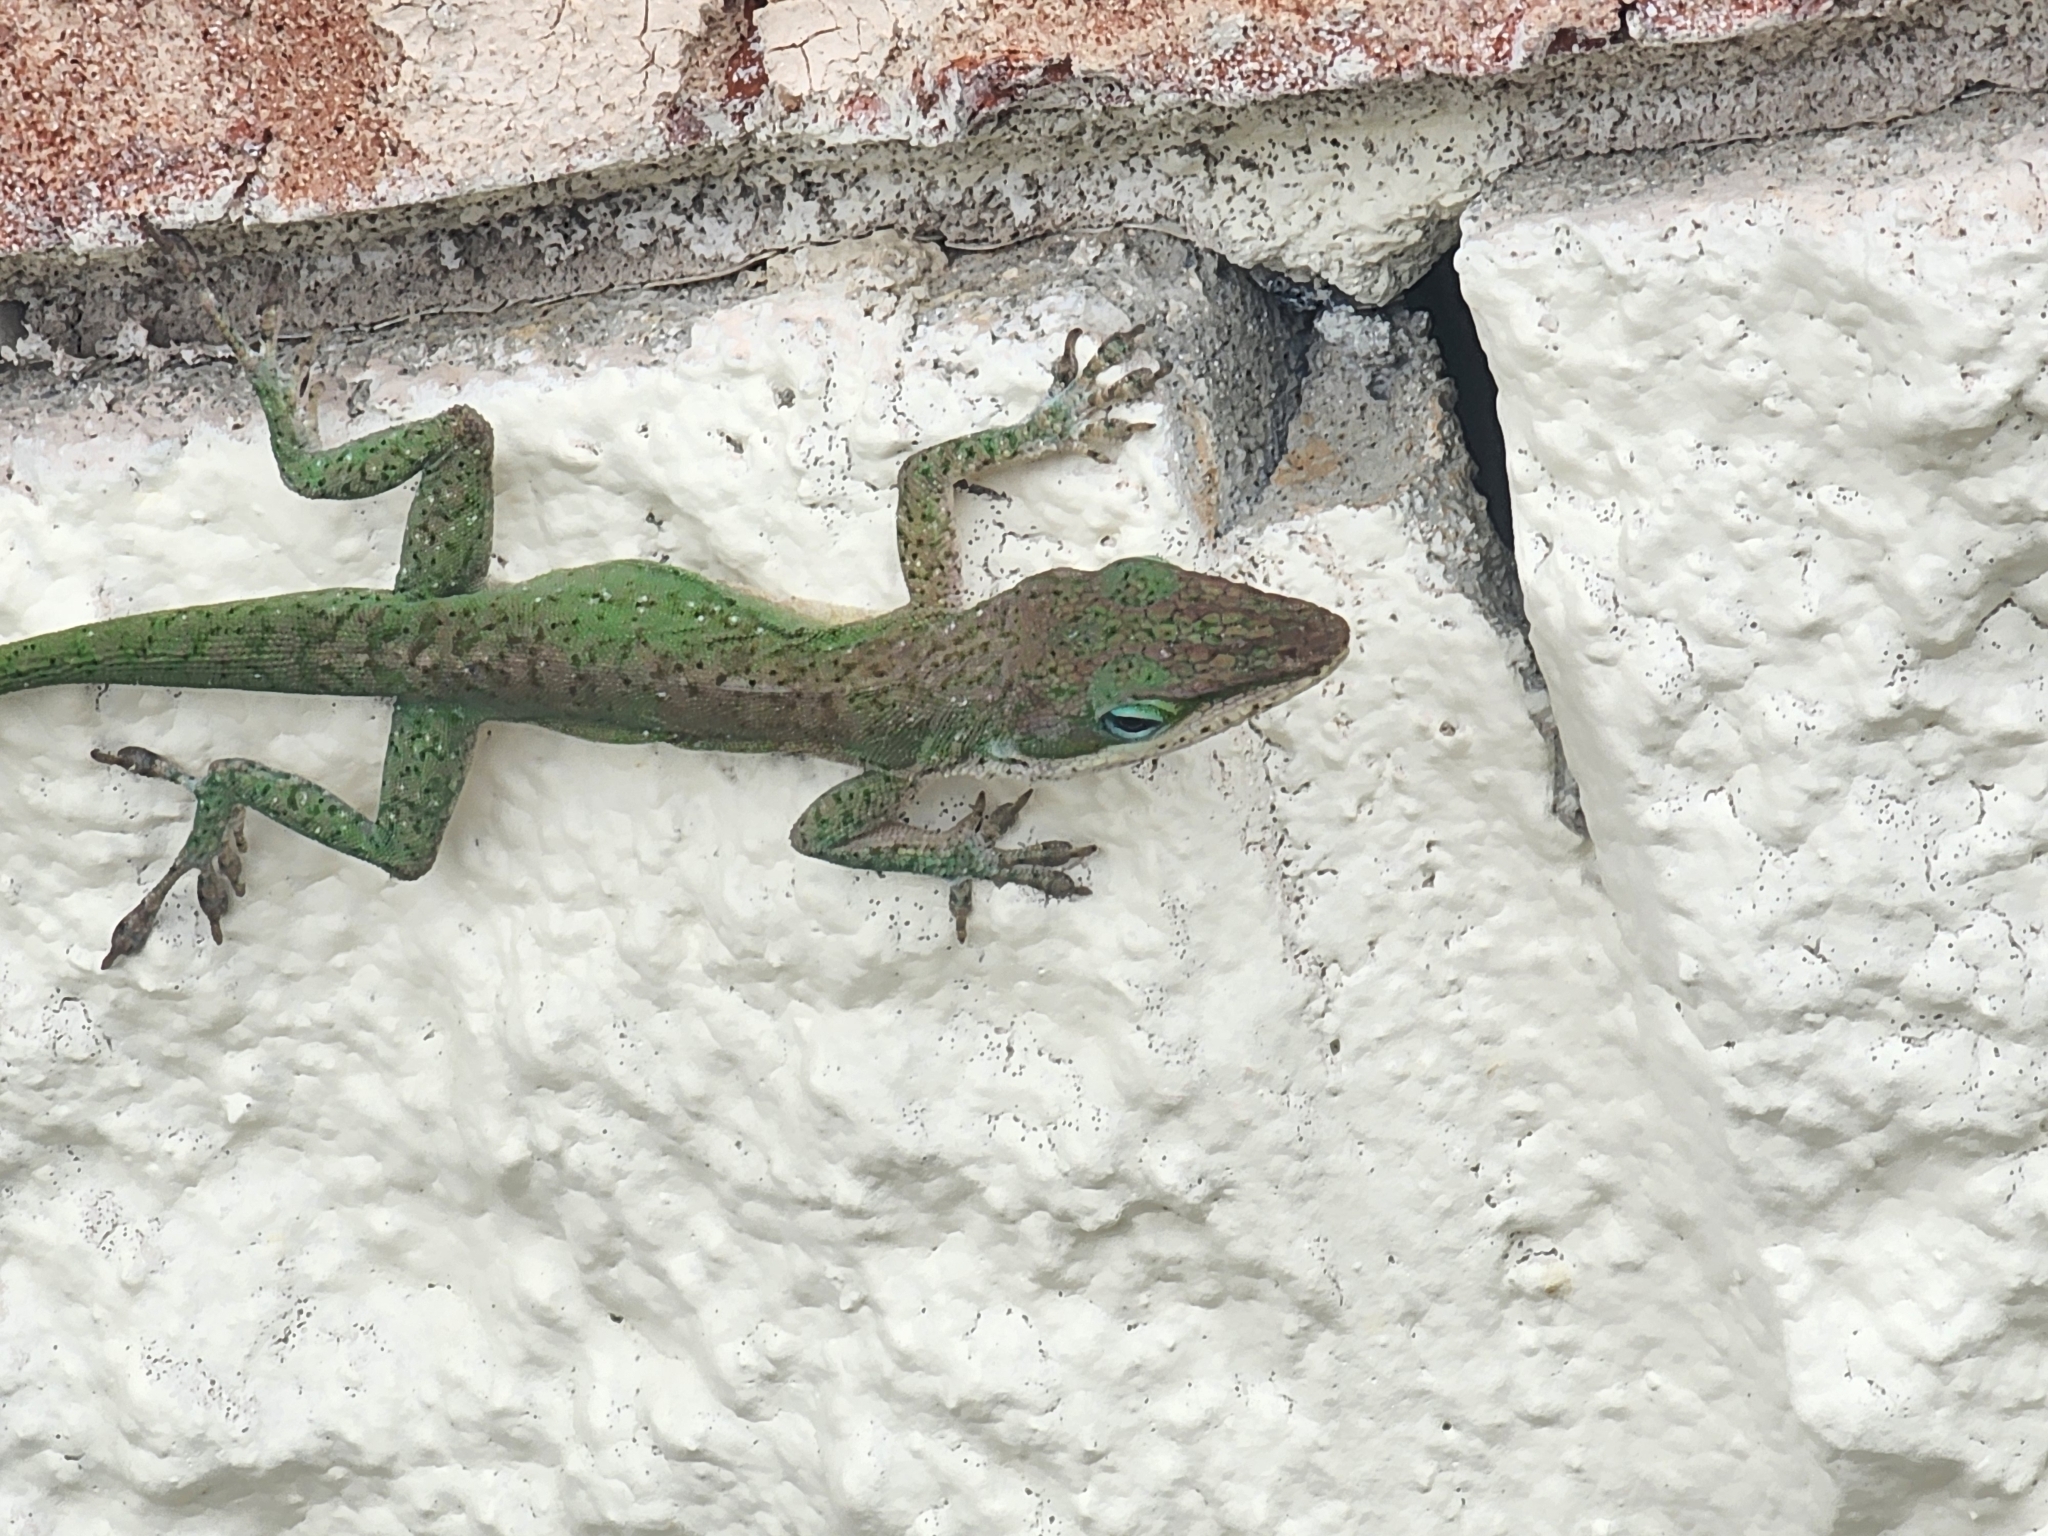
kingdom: Animalia
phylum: Chordata
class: Squamata
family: Dactyloidae
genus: Anolis
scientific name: Anolis carolinensis
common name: Green anole
